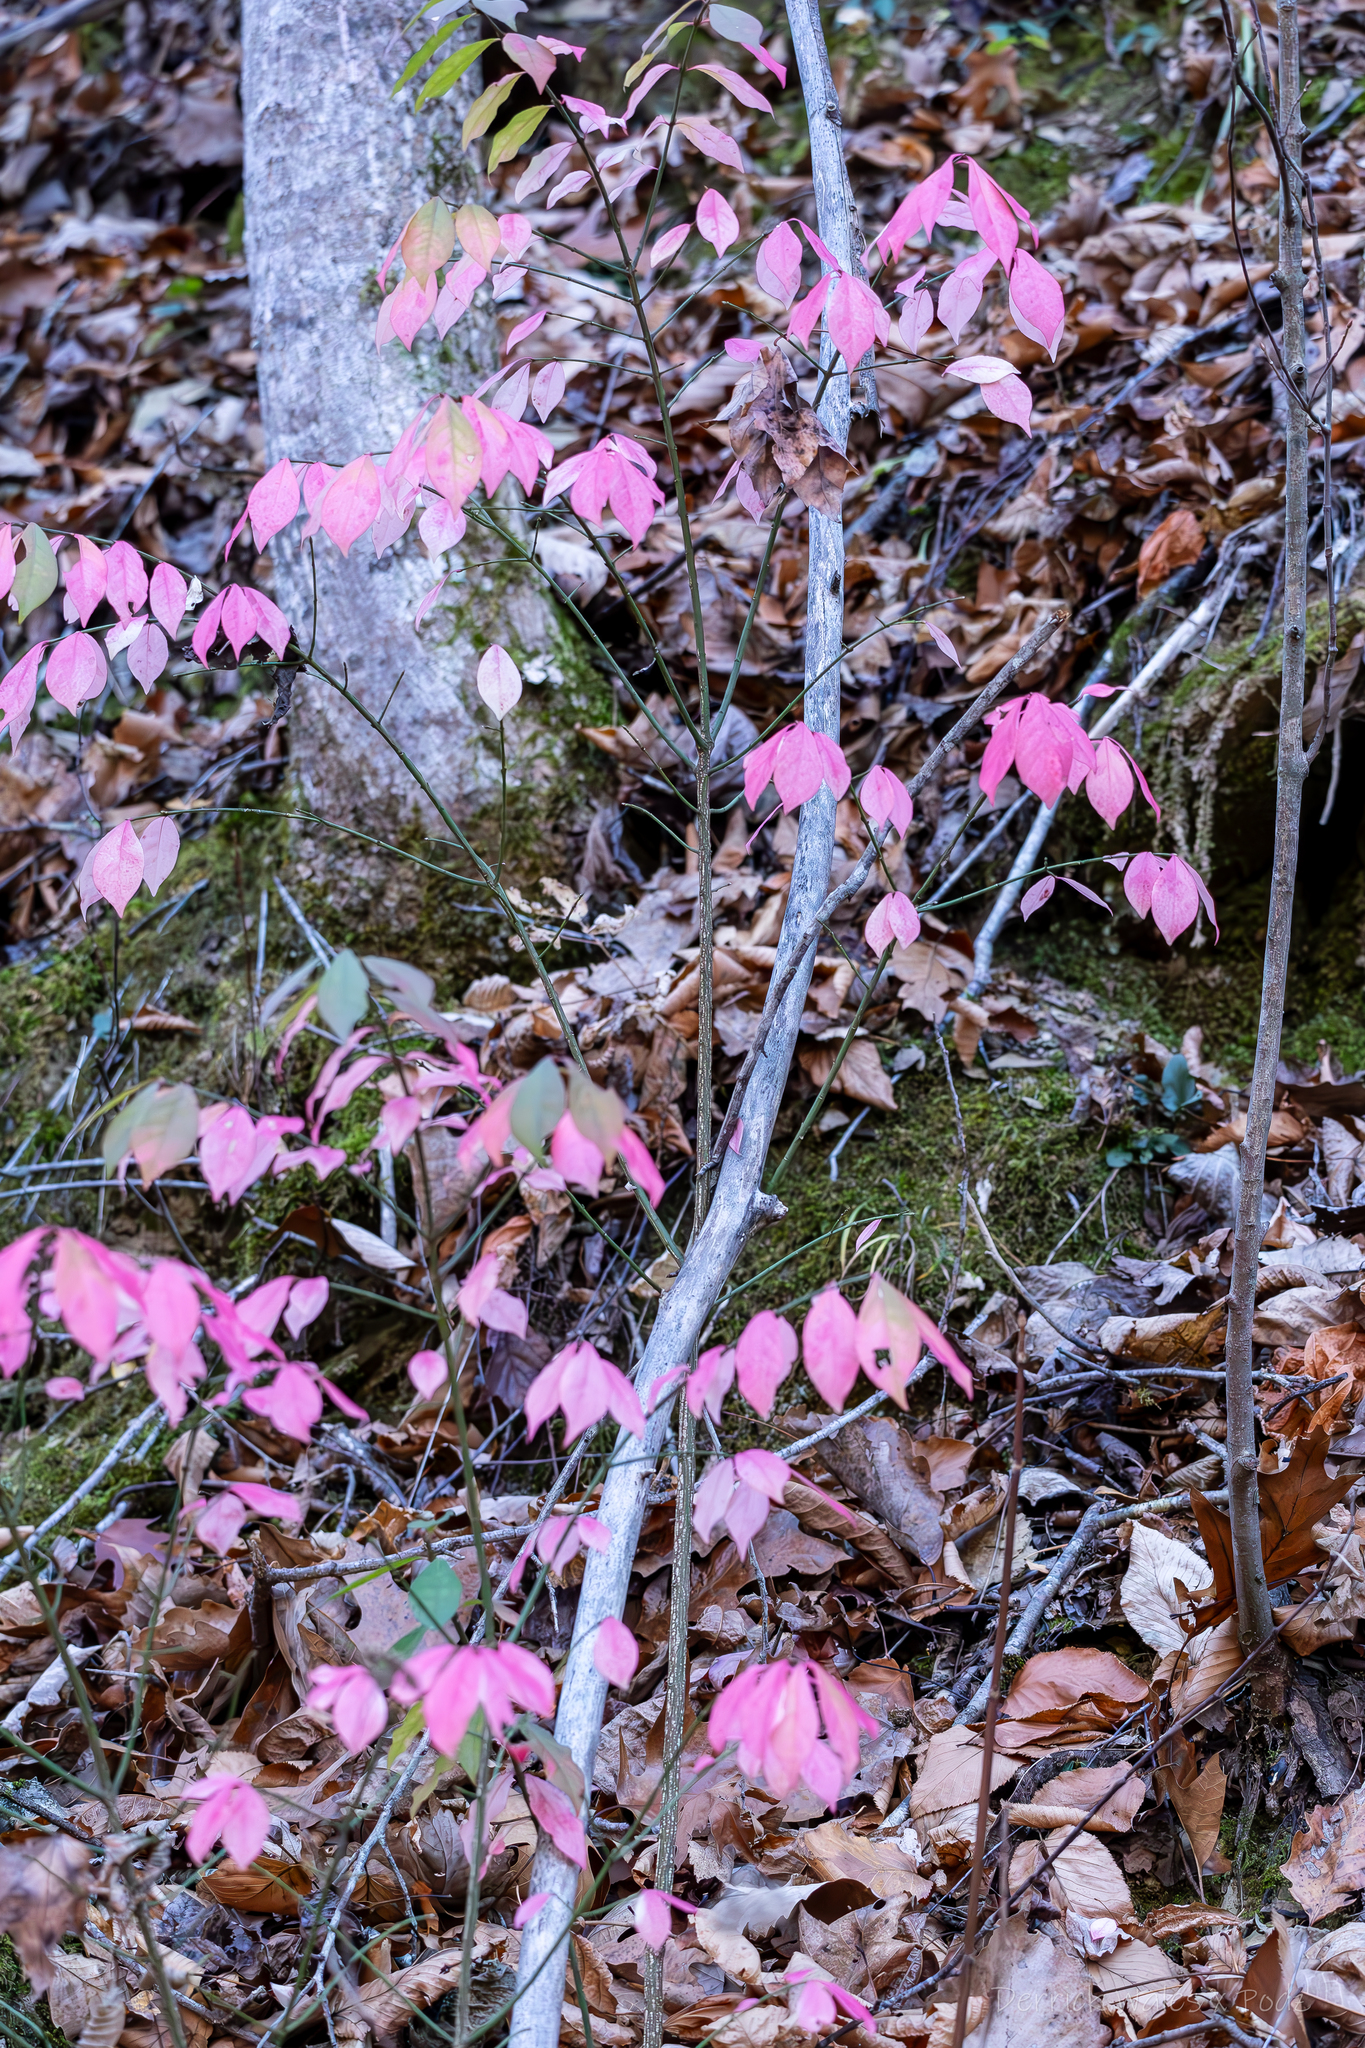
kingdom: Plantae
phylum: Tracheophyta
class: Magnoliopsida
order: Celastrales
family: Celastraceae
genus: Euonymus
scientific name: Euonymus alatus
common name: Winged euonymus
